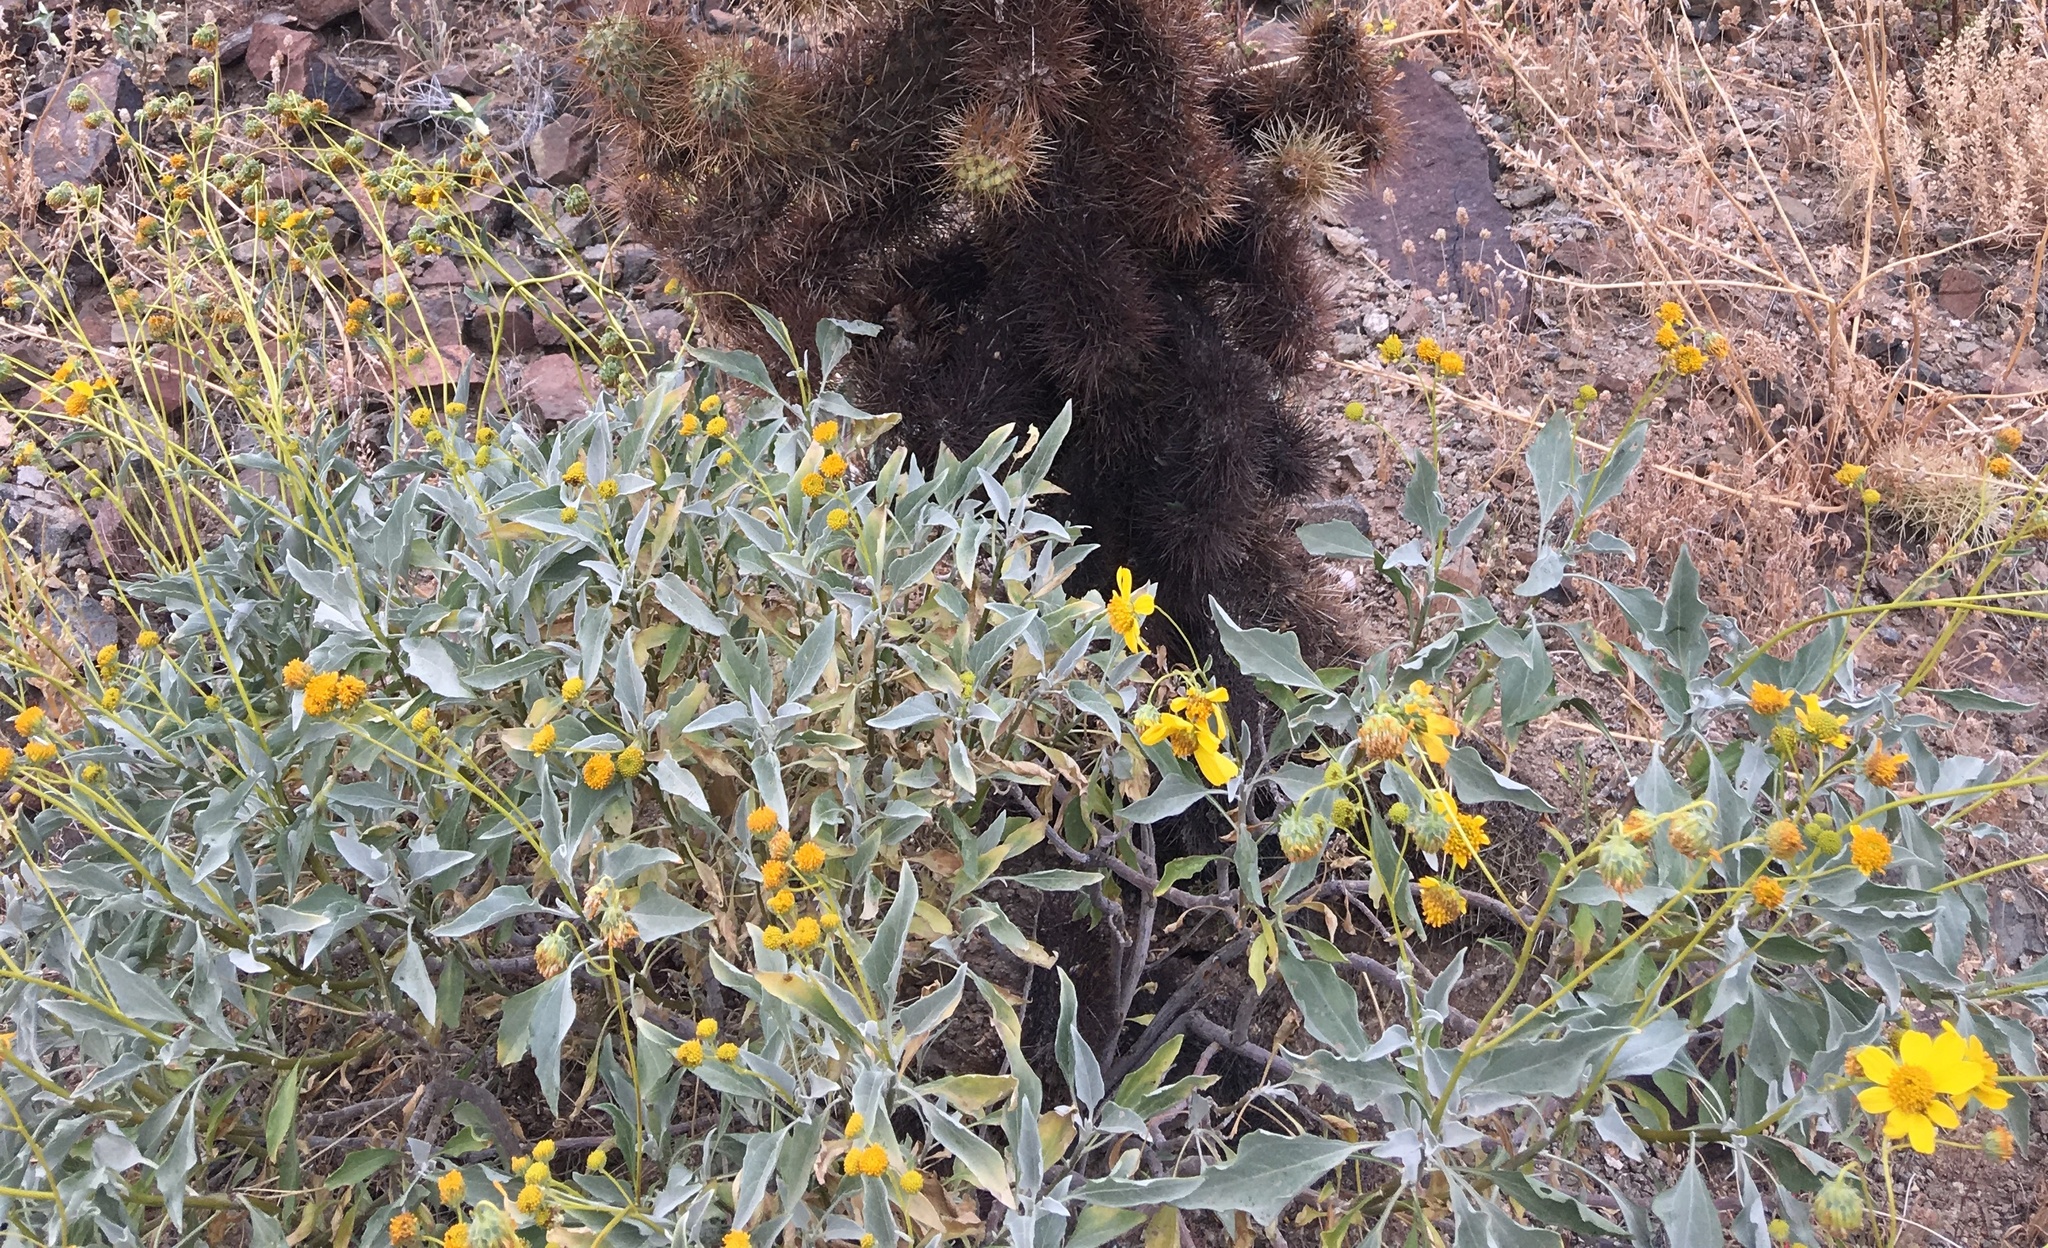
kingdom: Plantae
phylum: Tracheophyta
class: Magnoliopsida
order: Asterales
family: Asteraceae
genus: Encelia
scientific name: Encelia farinosa
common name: Brittlebush
